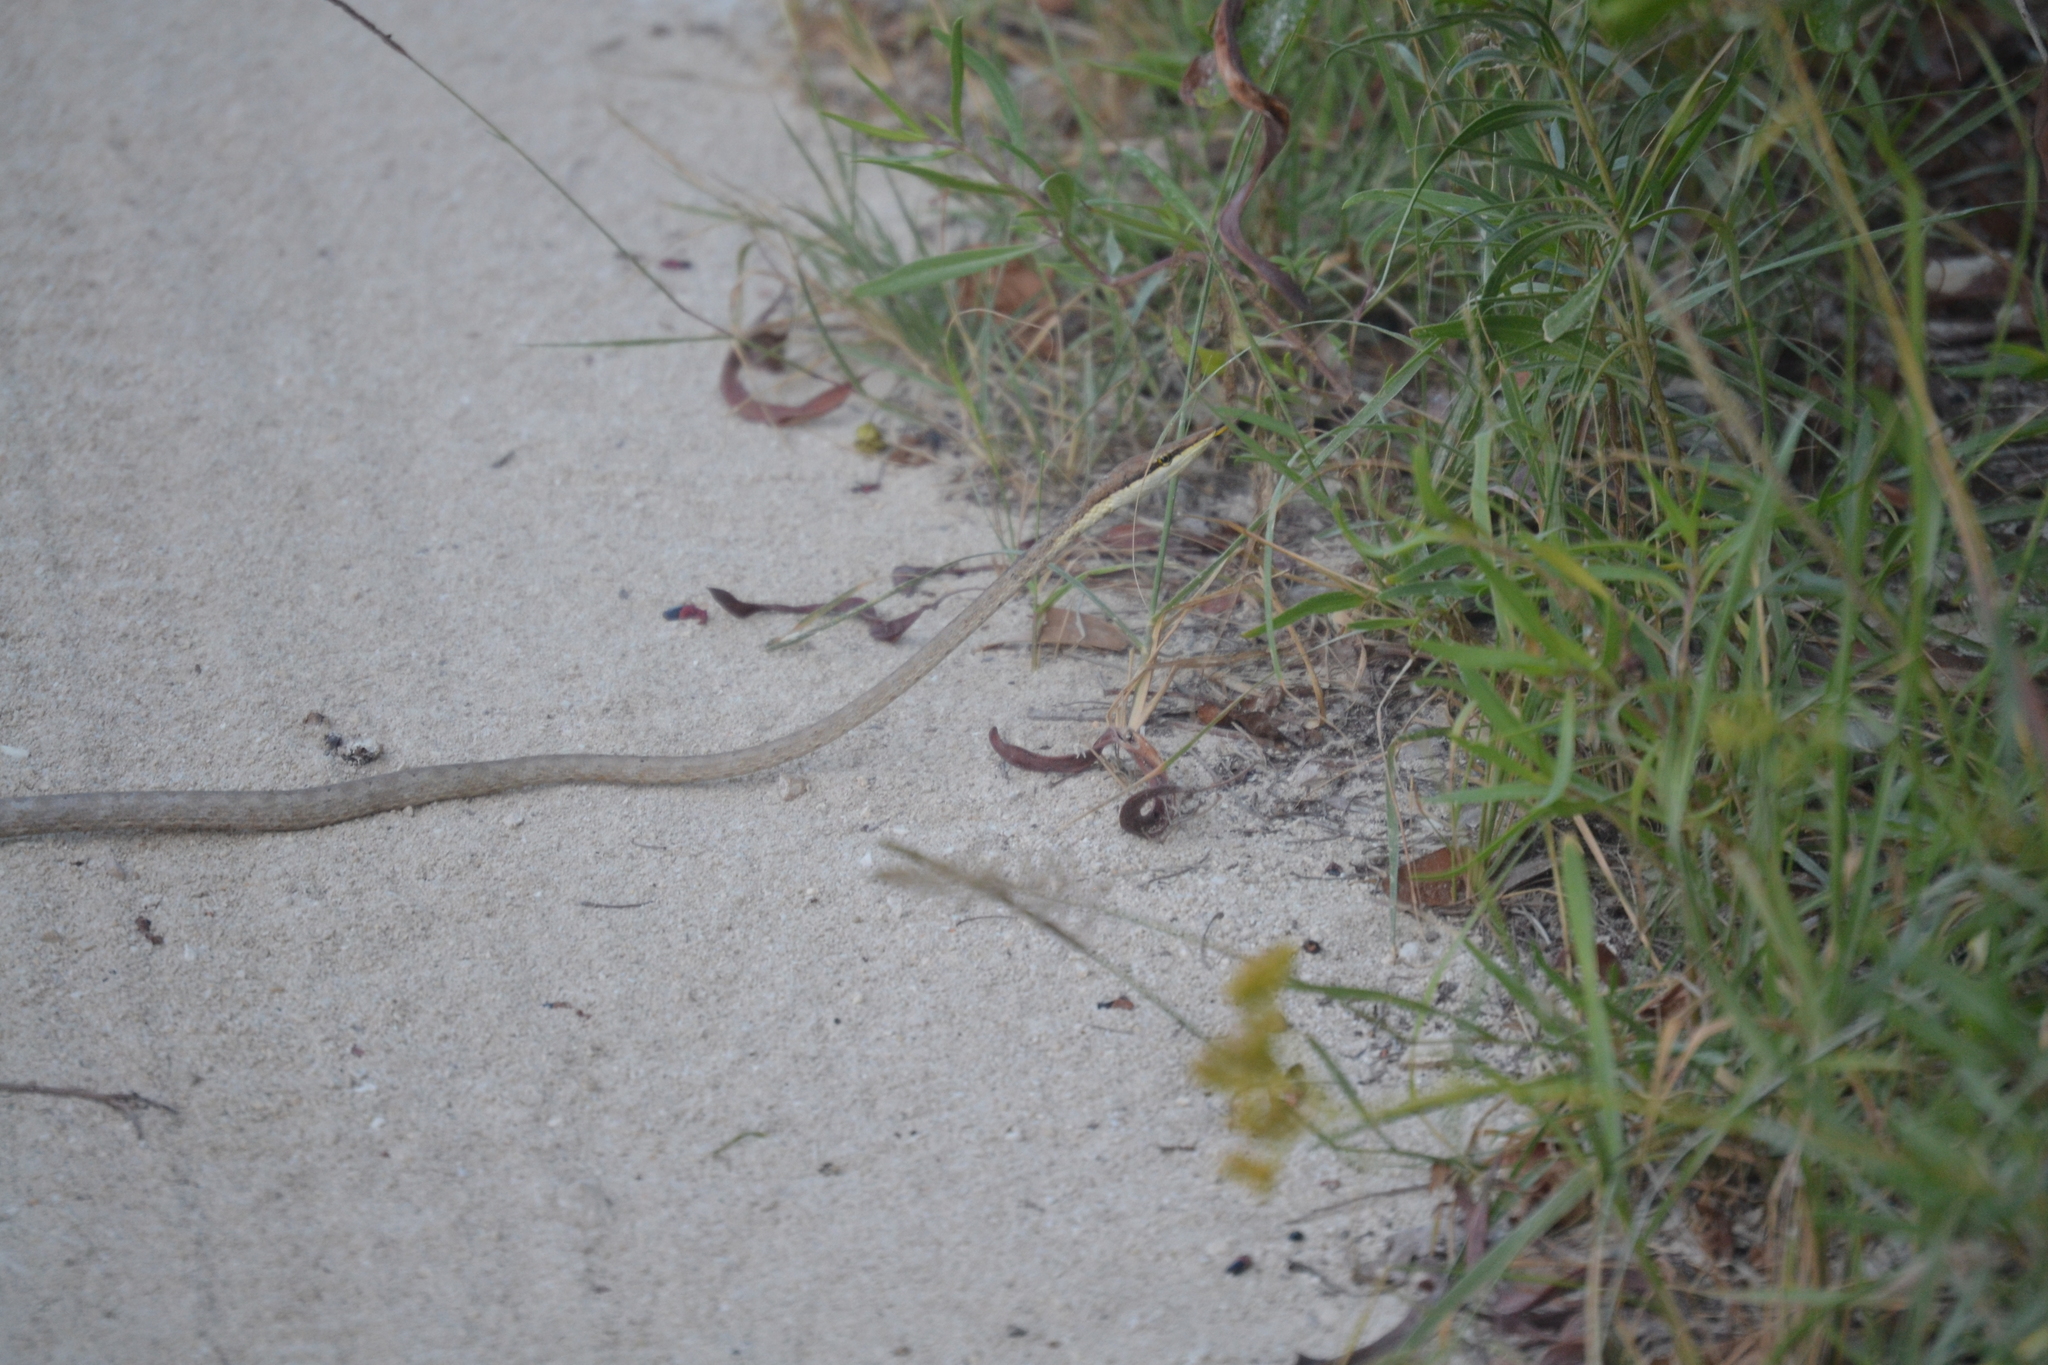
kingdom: Animalia
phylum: Chordata
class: Squamata
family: Colubridae
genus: Oxybelis
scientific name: Oxybelis potosiensis
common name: Gulf coast vine snake
